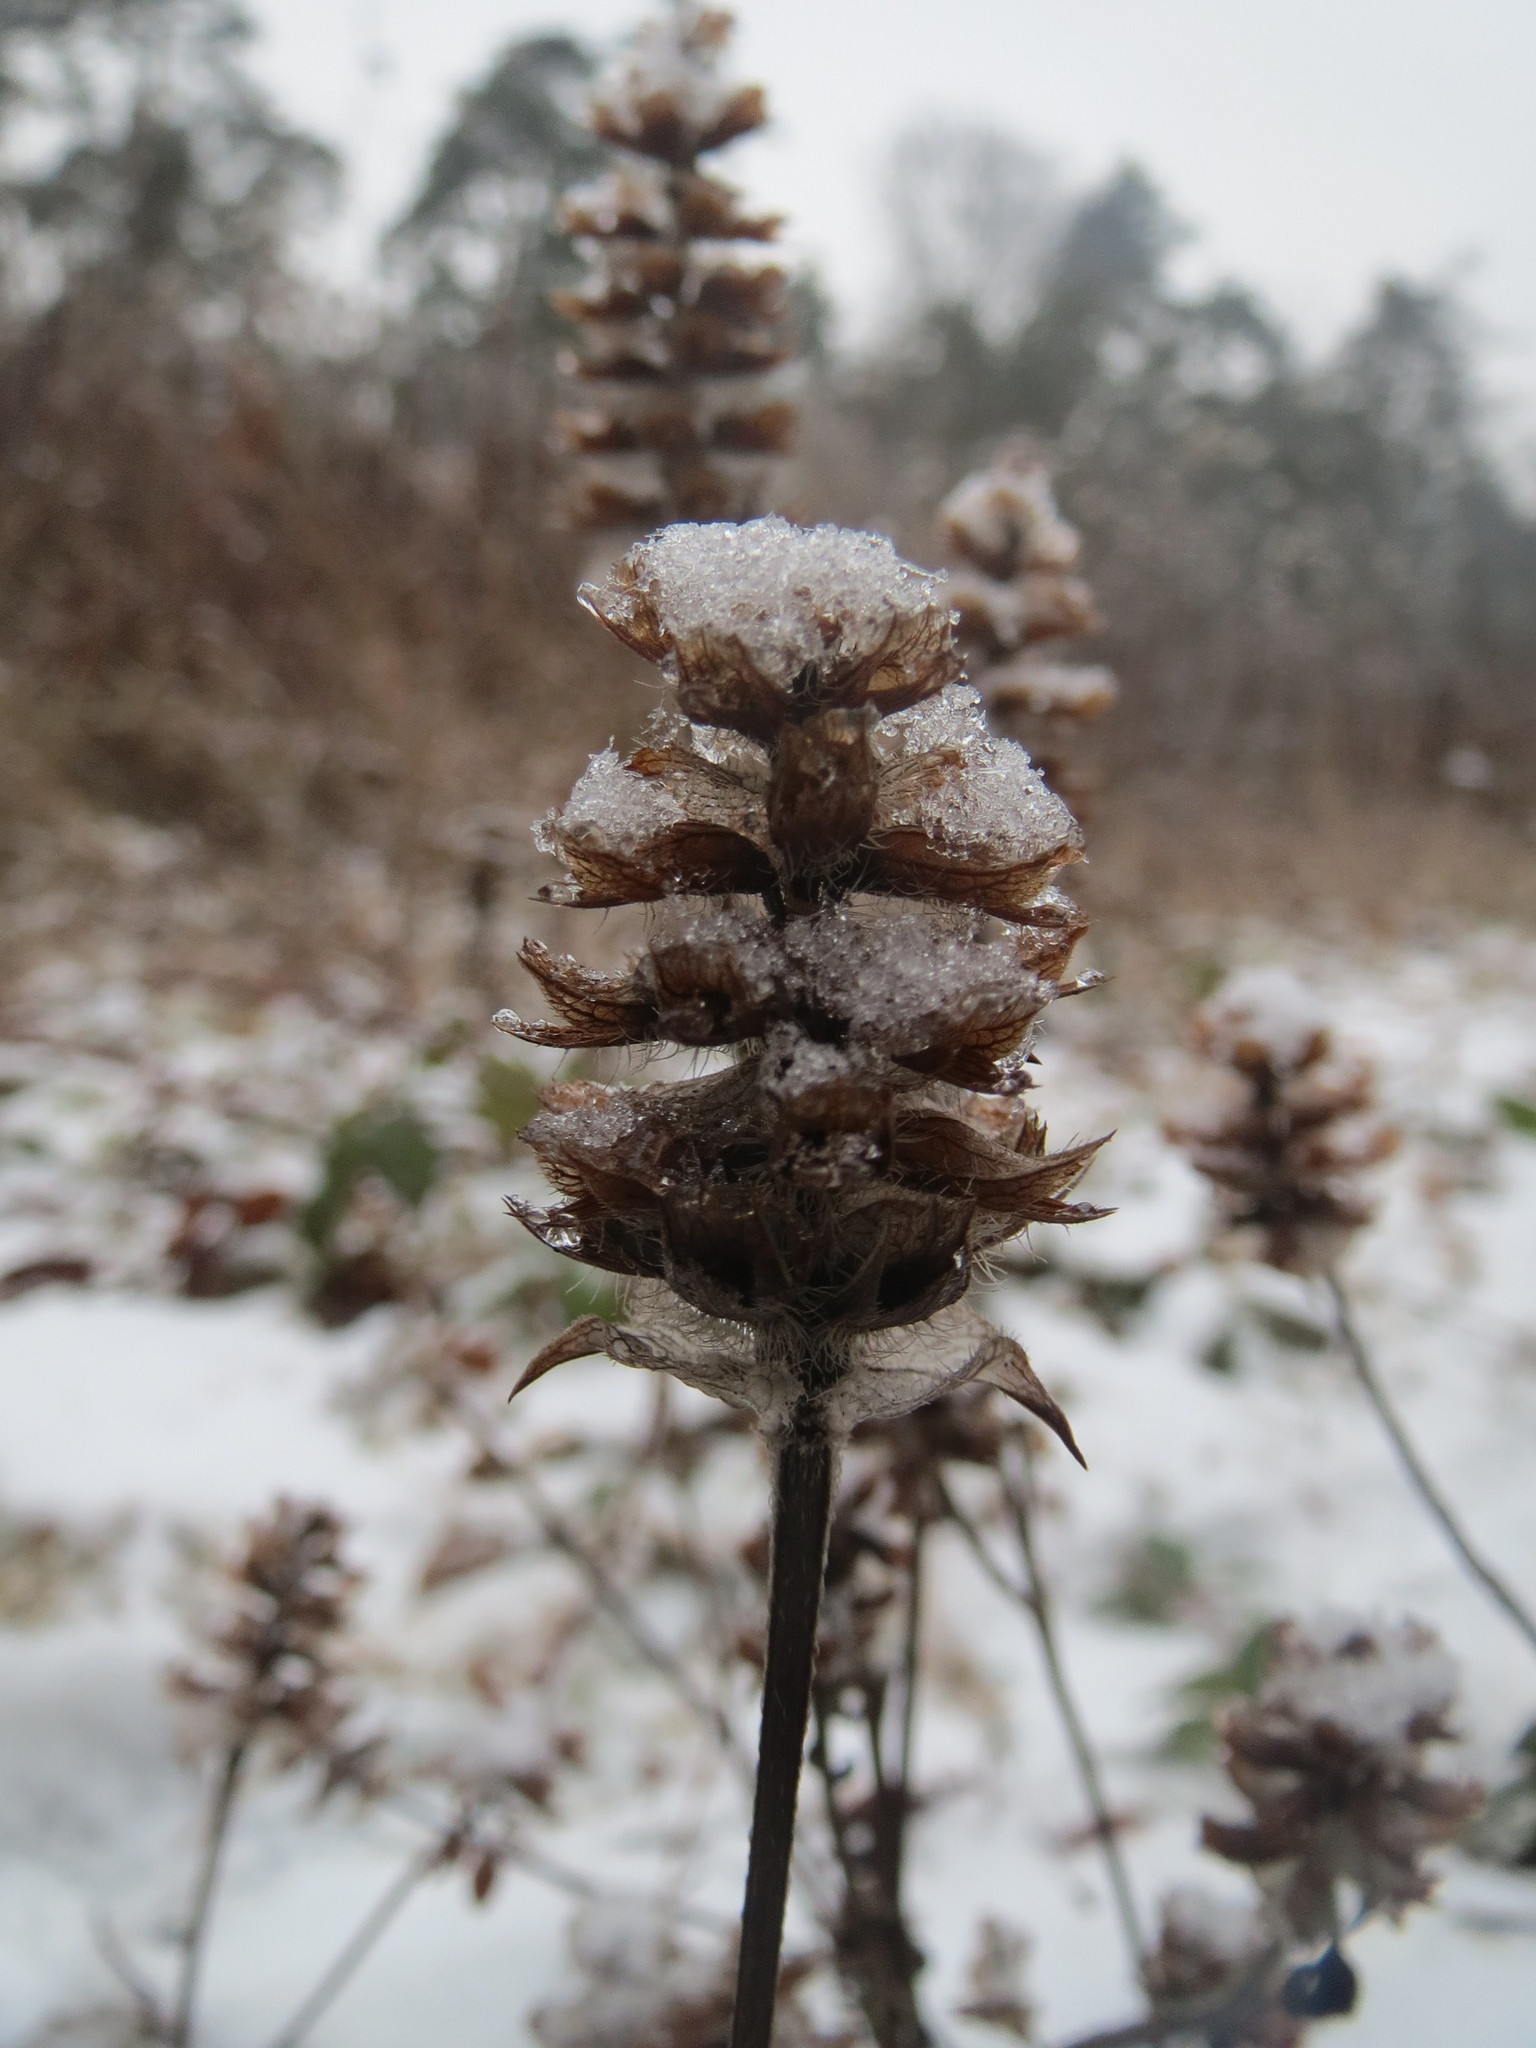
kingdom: Plantae
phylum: Tracheophyta
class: Magnoliopsida
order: Lamiales
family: Lamiaceae
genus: Prunella
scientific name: Prunella vulgaris
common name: Heal-all
